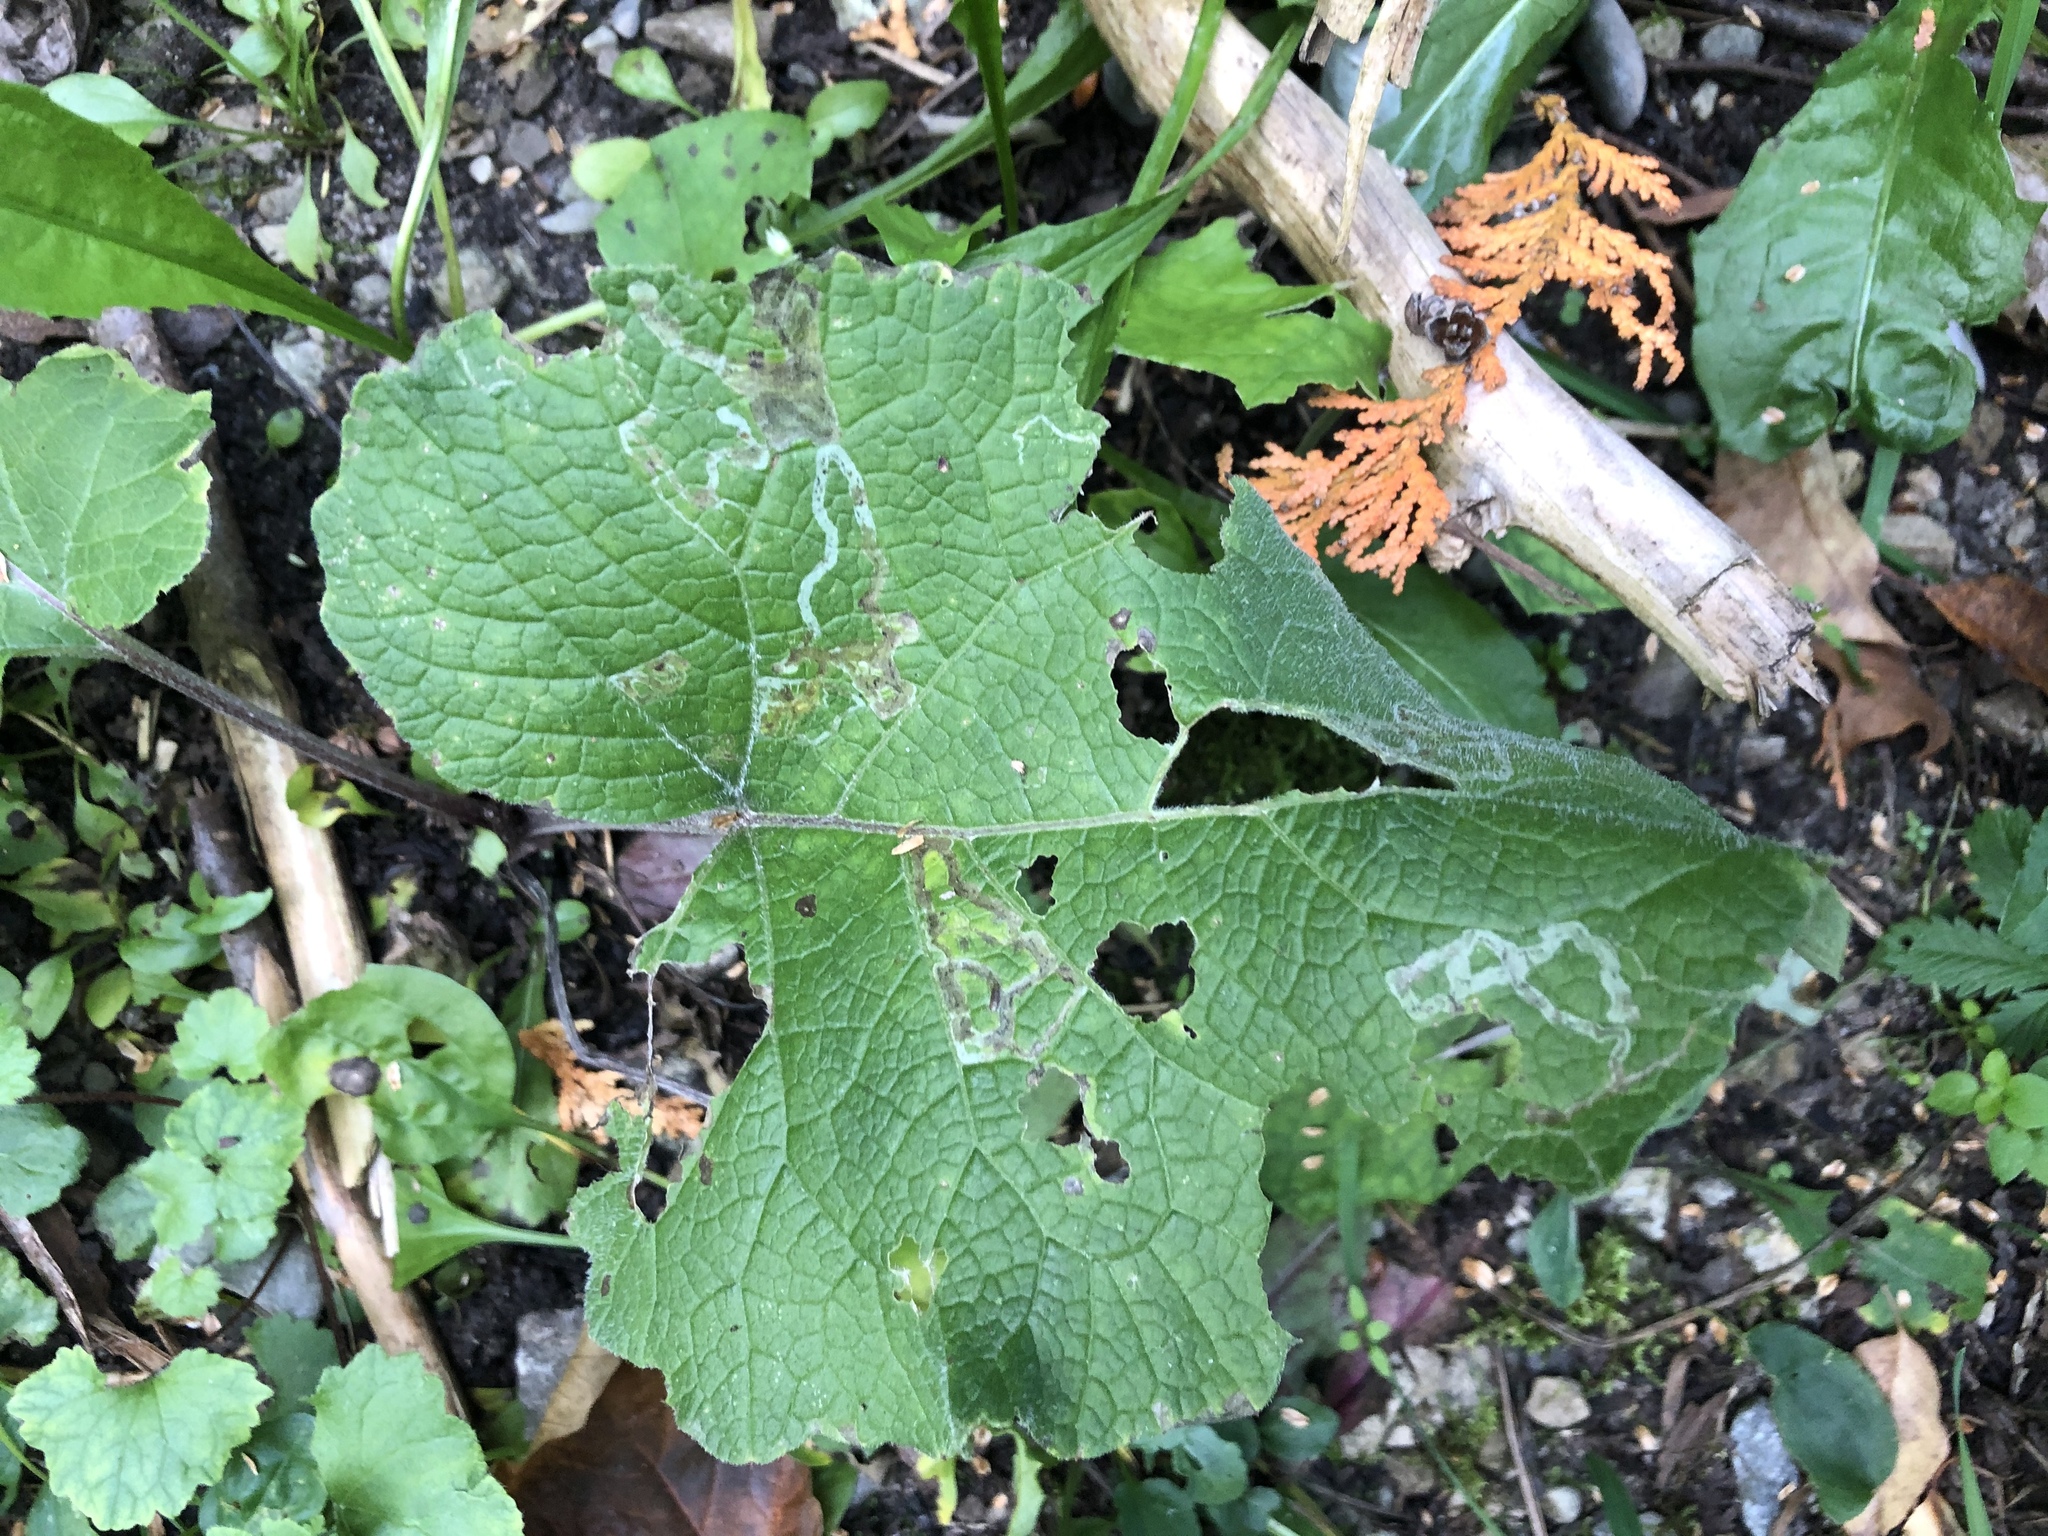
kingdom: Animalia
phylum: Arthropoda
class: Insecta
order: Diptera
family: Agromyzidae
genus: Liriomyza
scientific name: Liriomyza arctii
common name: Burdock leafminer
